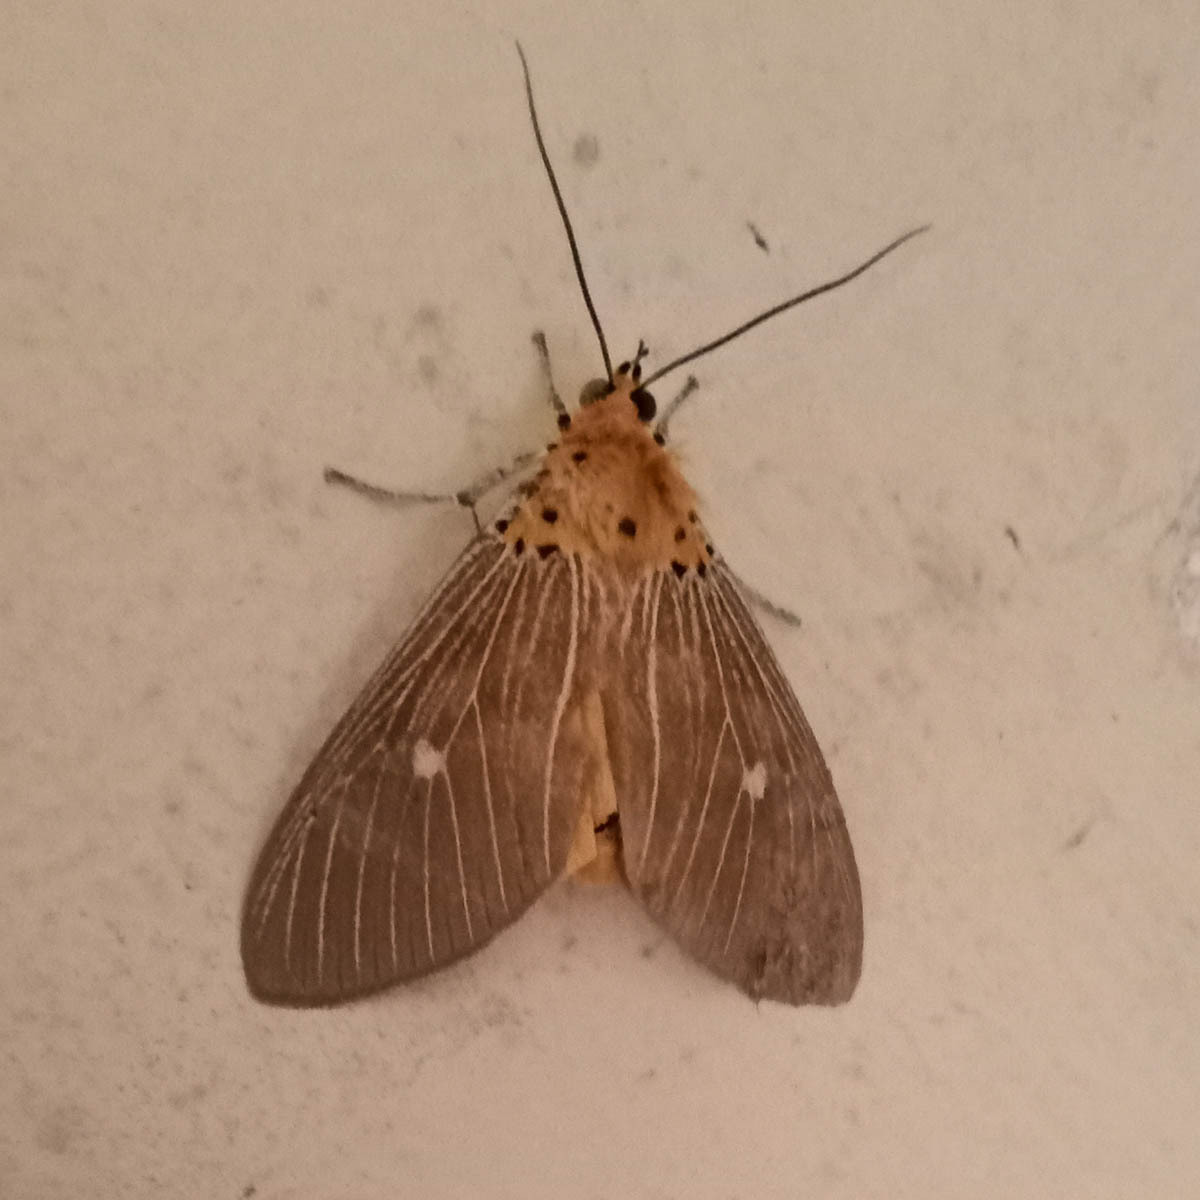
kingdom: Animalia
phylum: Arthropoda
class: Insecta
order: Lepidoptera
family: Erebidae
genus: Asota
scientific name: Asota caricae
